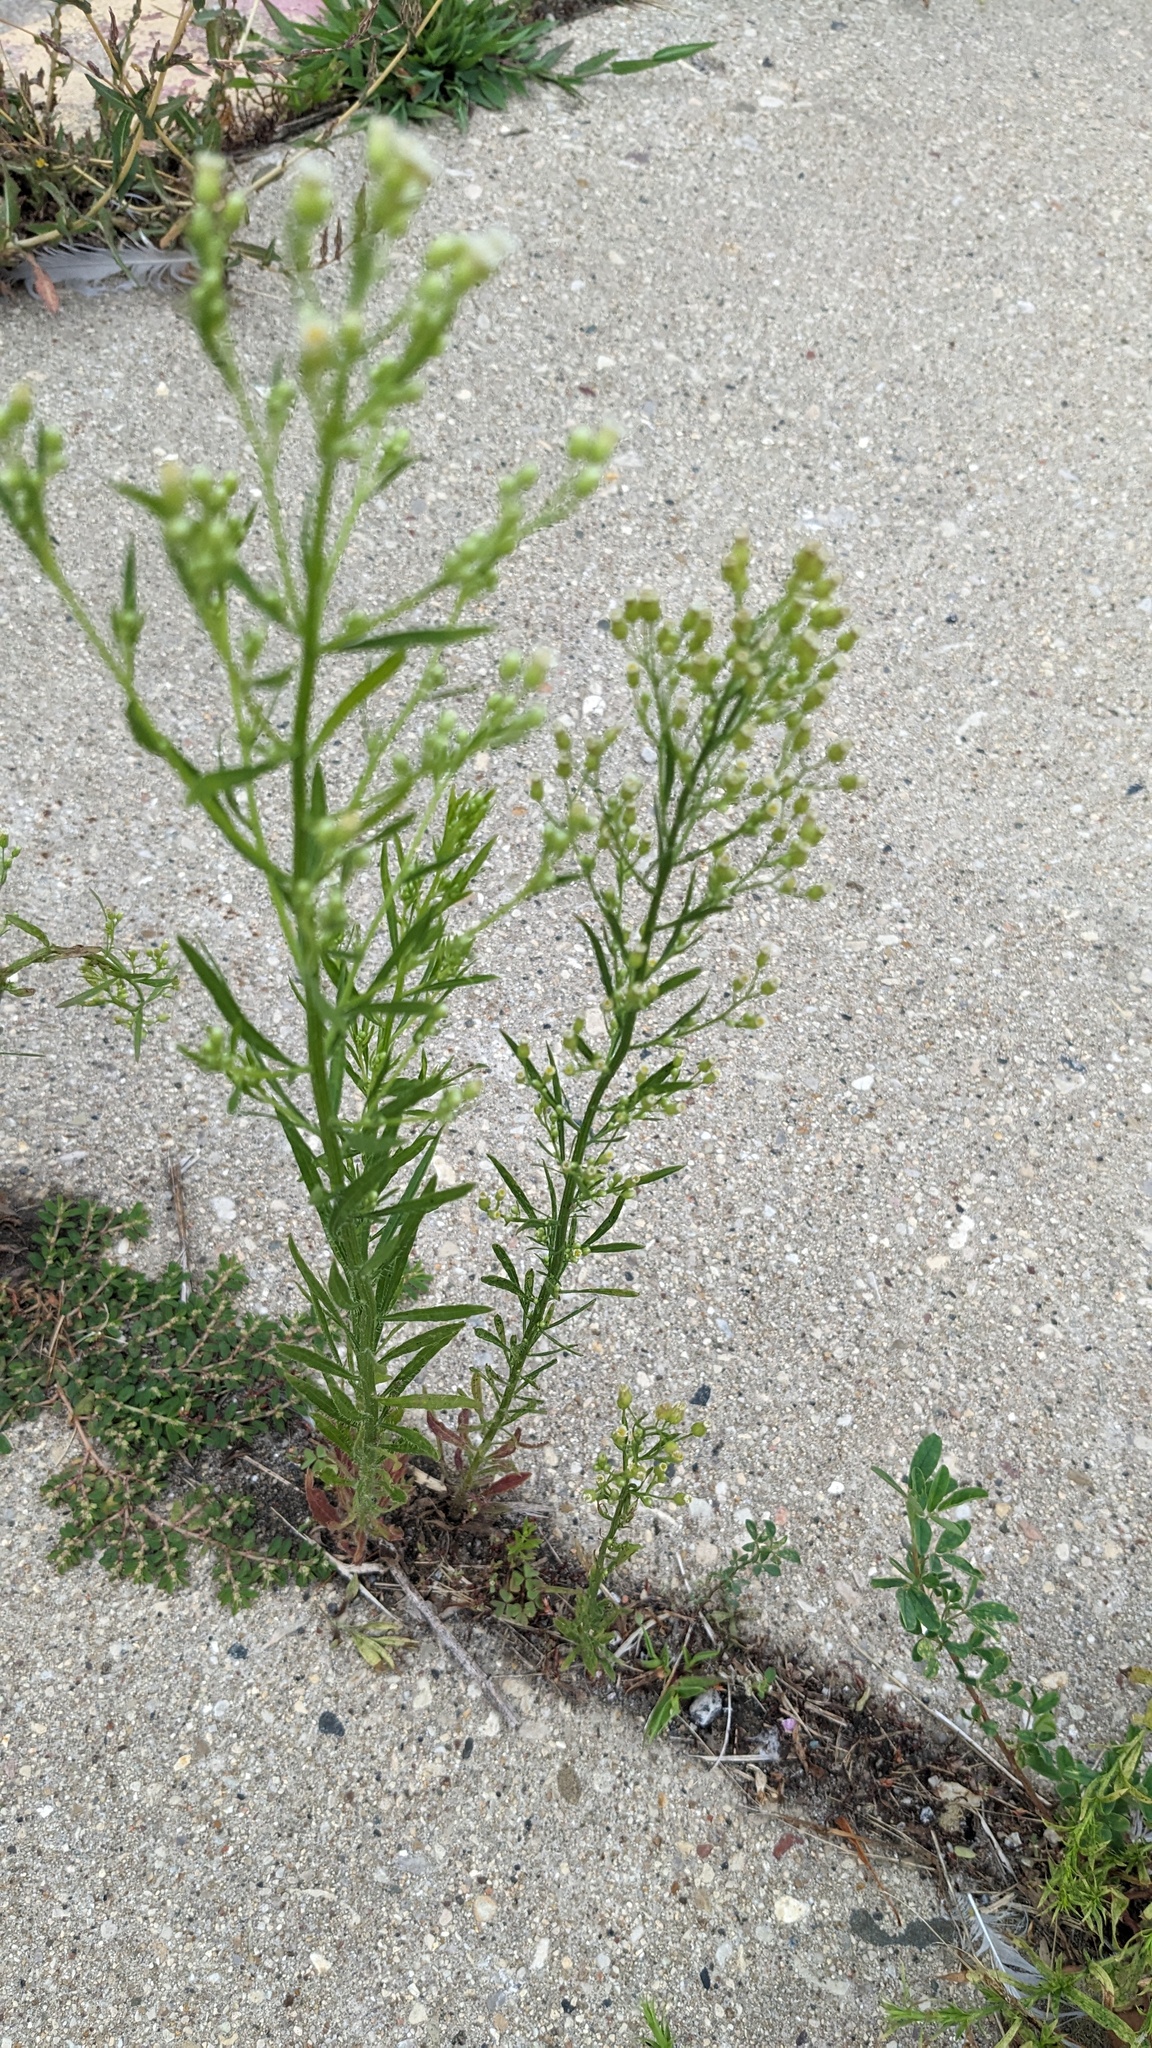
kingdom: Plantae
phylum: Tracheophyta
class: Magnoliopsida
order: Asterales
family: Asteraceae
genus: Erigeron
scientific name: Erigeron canadensis
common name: Canadian fleabane
